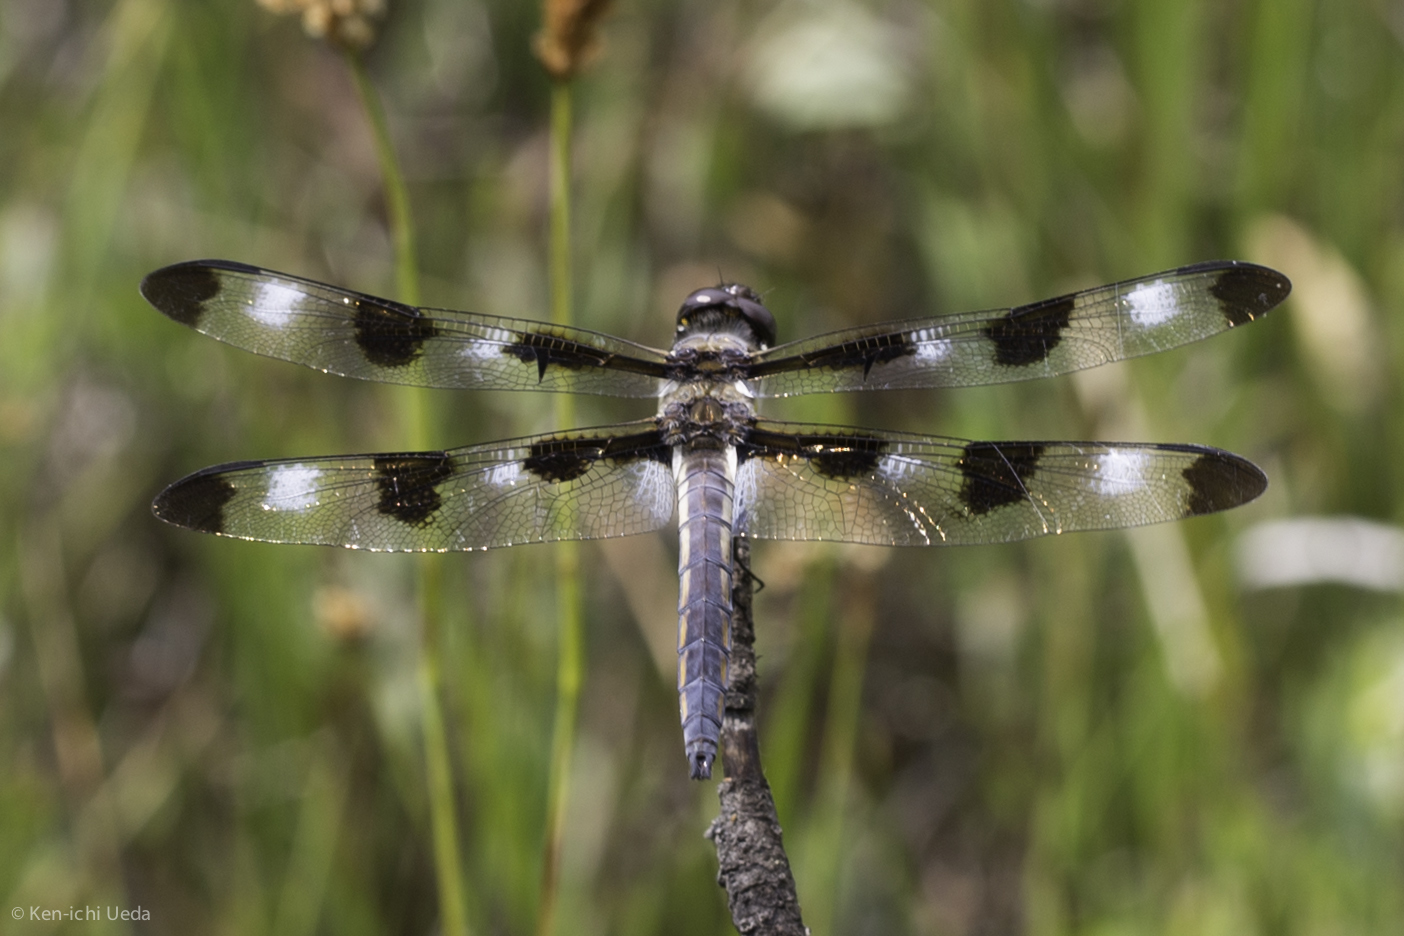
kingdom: Animalia
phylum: Arthropoda
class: Insecta
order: Odonata
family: Libellulidae
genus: Libellula
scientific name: Libellula pulchella
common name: Twelve-spotted skimmer
